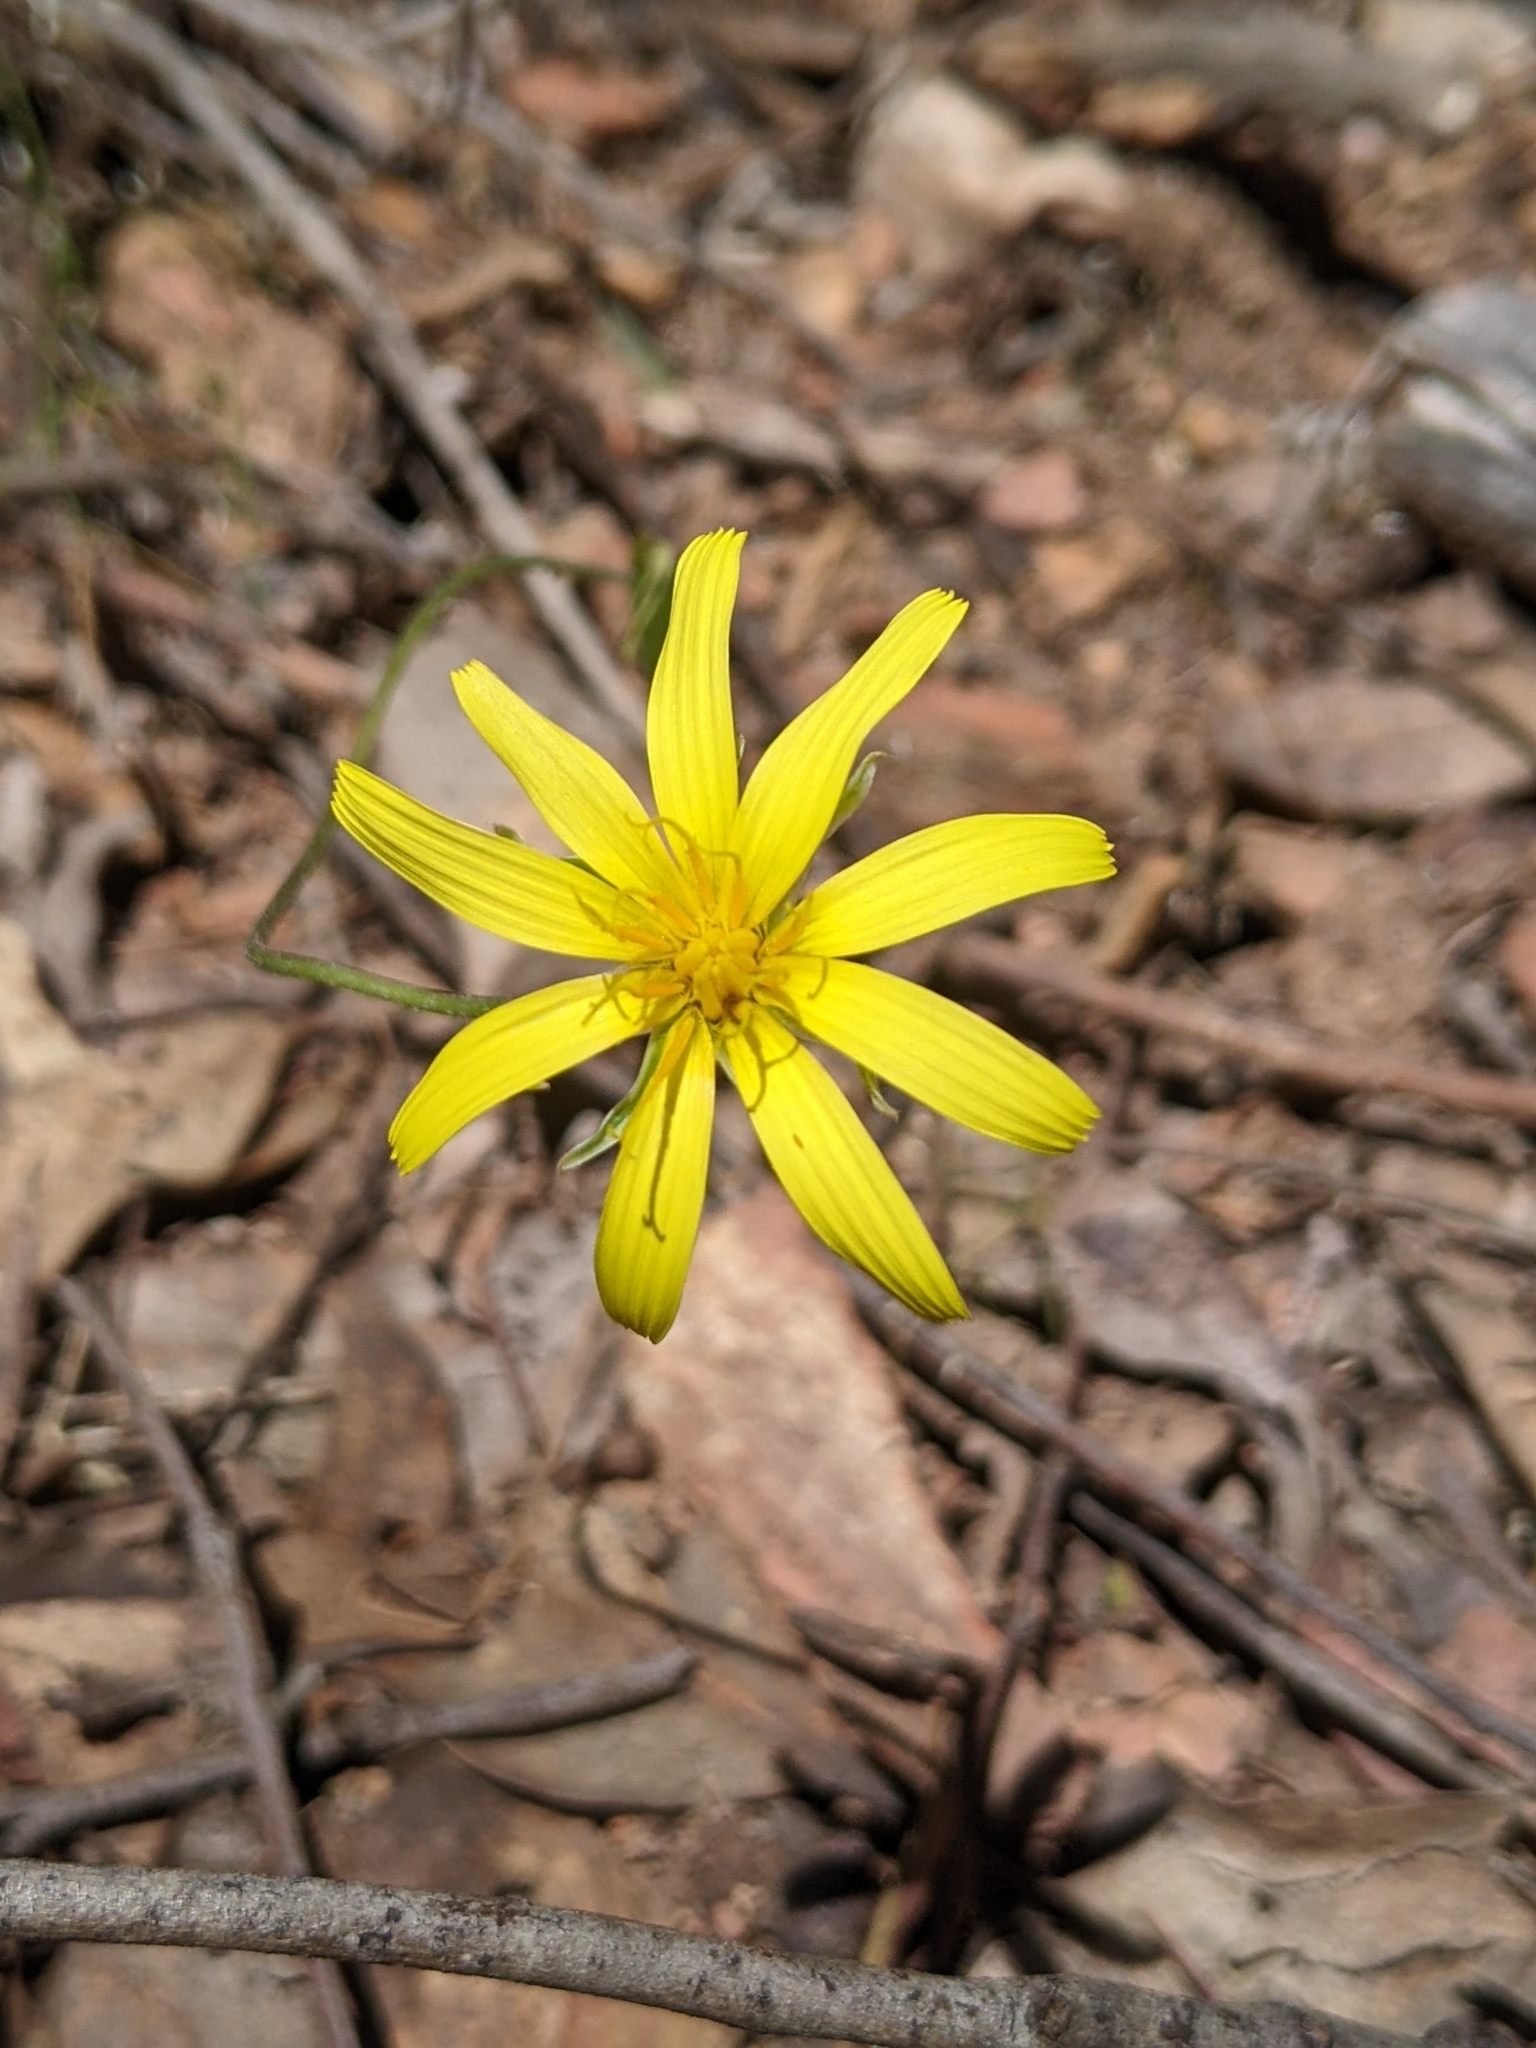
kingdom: Plantae
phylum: Tracheophyta
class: Magnoliopsida
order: Asterales
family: Asteraceae
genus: Microseris
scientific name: Microseris lanceolata
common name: Yam daisy
